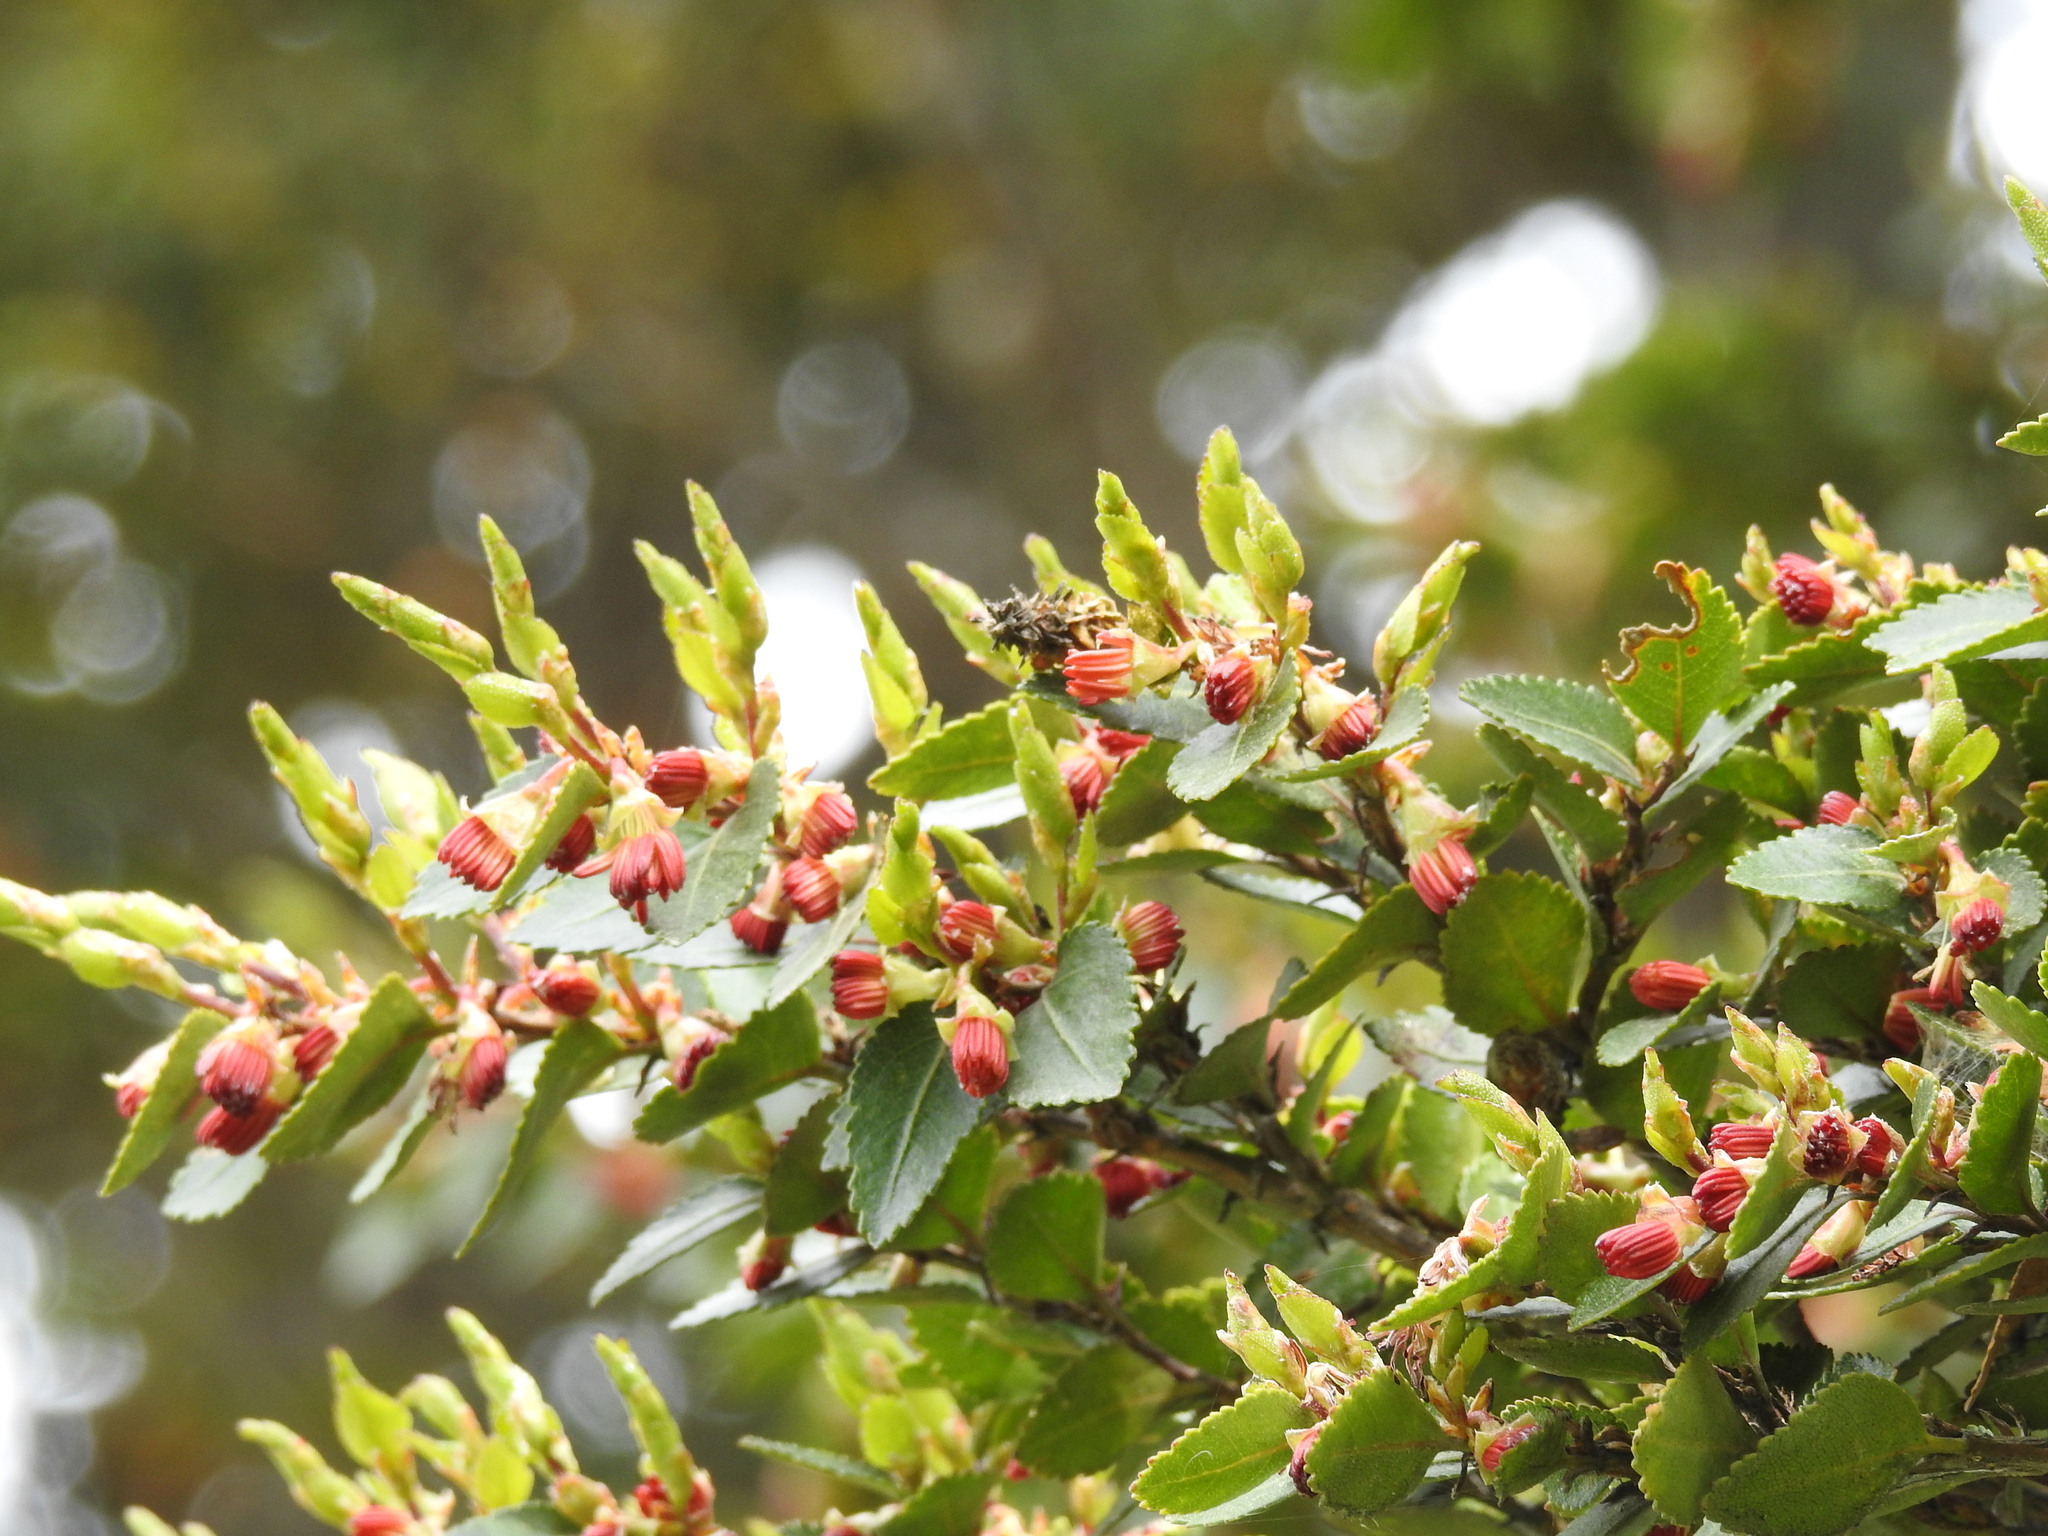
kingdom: Plantae
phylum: Tracheophyta
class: Magnoliopsida
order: Fagales
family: Nothofagaceae
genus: Nothofagus
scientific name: Nothofagus betuloides
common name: Magellan's beech
